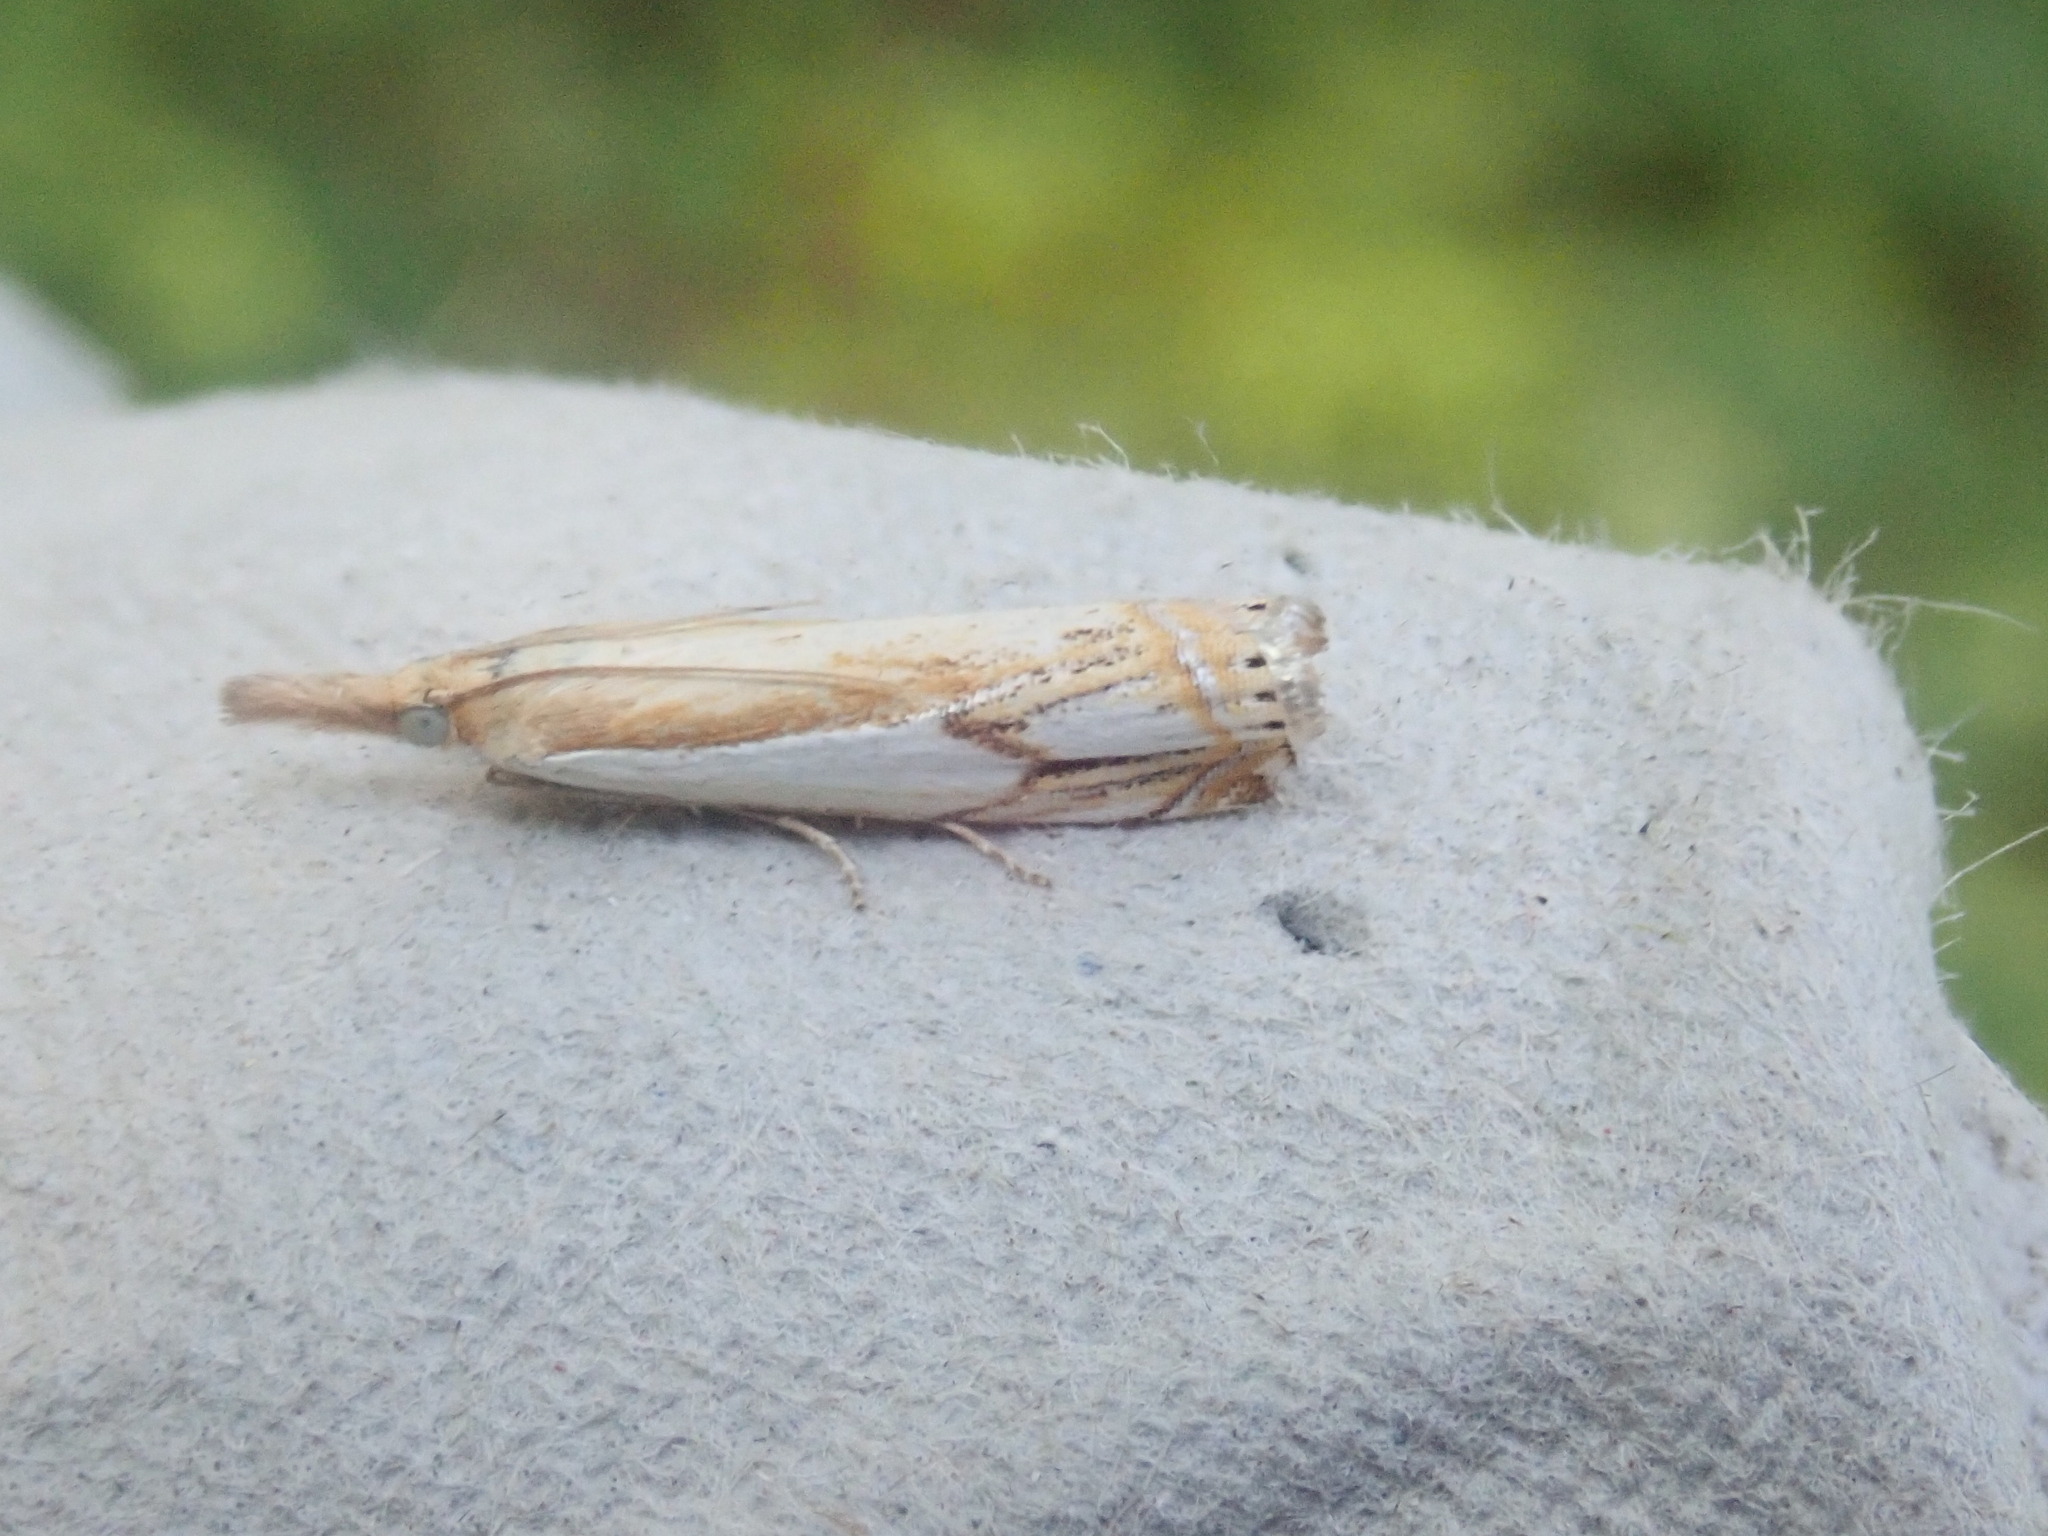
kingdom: Animalia
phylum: Arthropoda
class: Insecta
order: Lepidoptera
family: Crambidae
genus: Crambus
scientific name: Crambus agitatellus
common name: Double-banded grass-veneer
